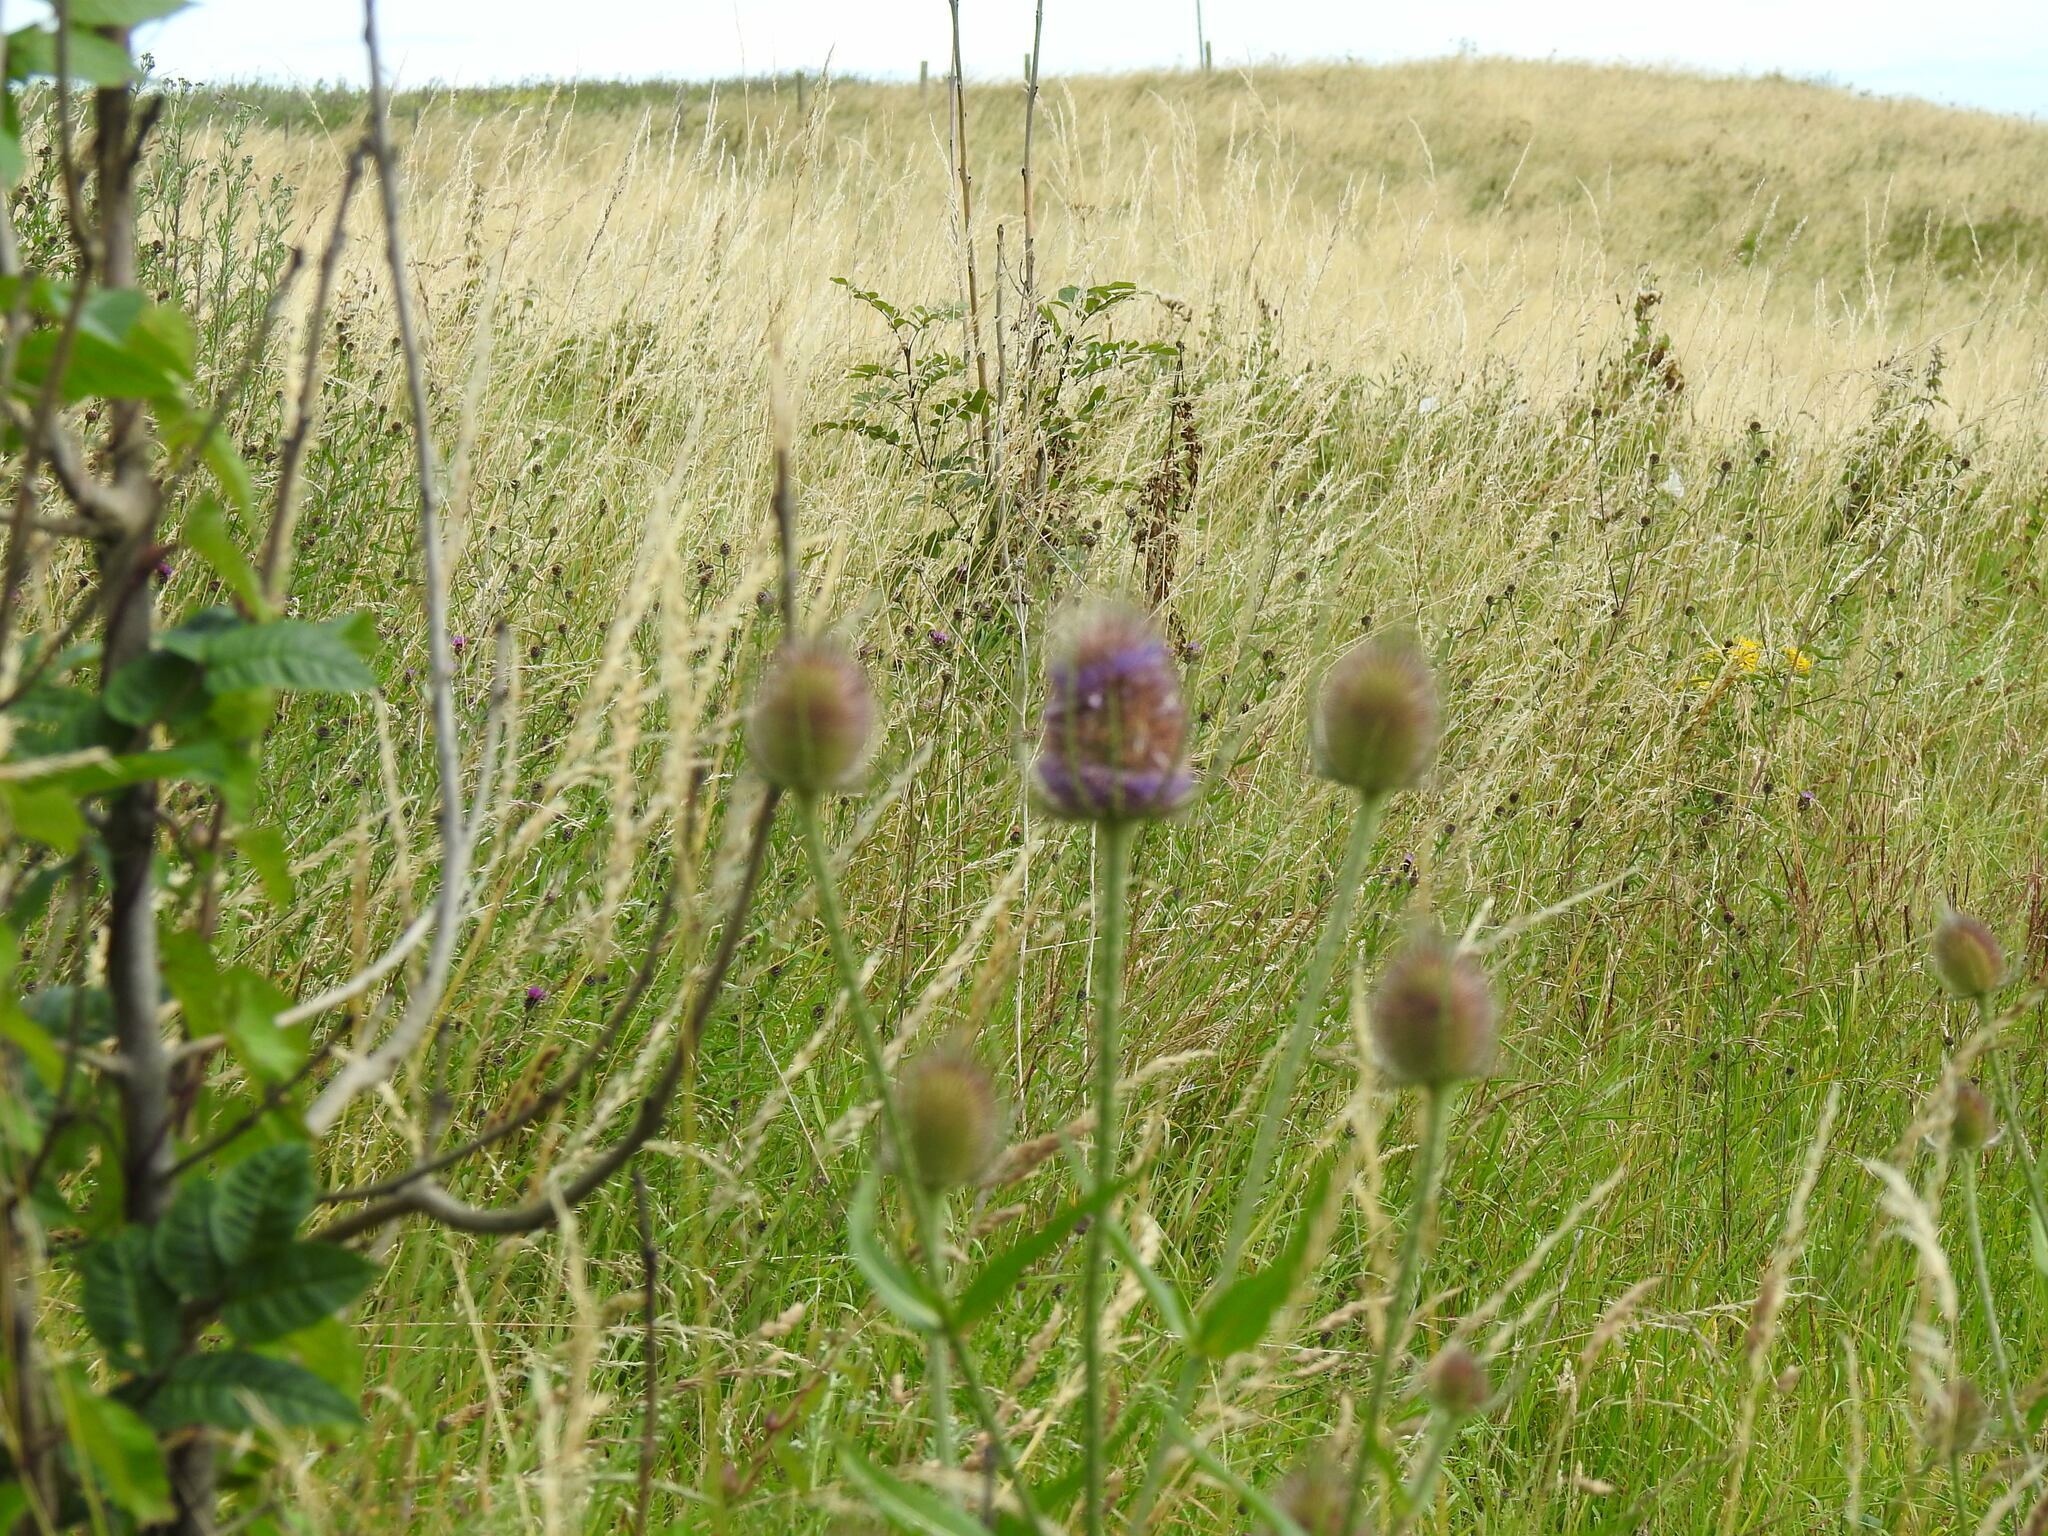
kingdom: Plantae
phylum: Tracheophyta
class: Magnoliopsida
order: Dipsacales
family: Caprifoliaceae
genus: Dipsacus
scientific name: Dipsacus fullonum
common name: Teasel
